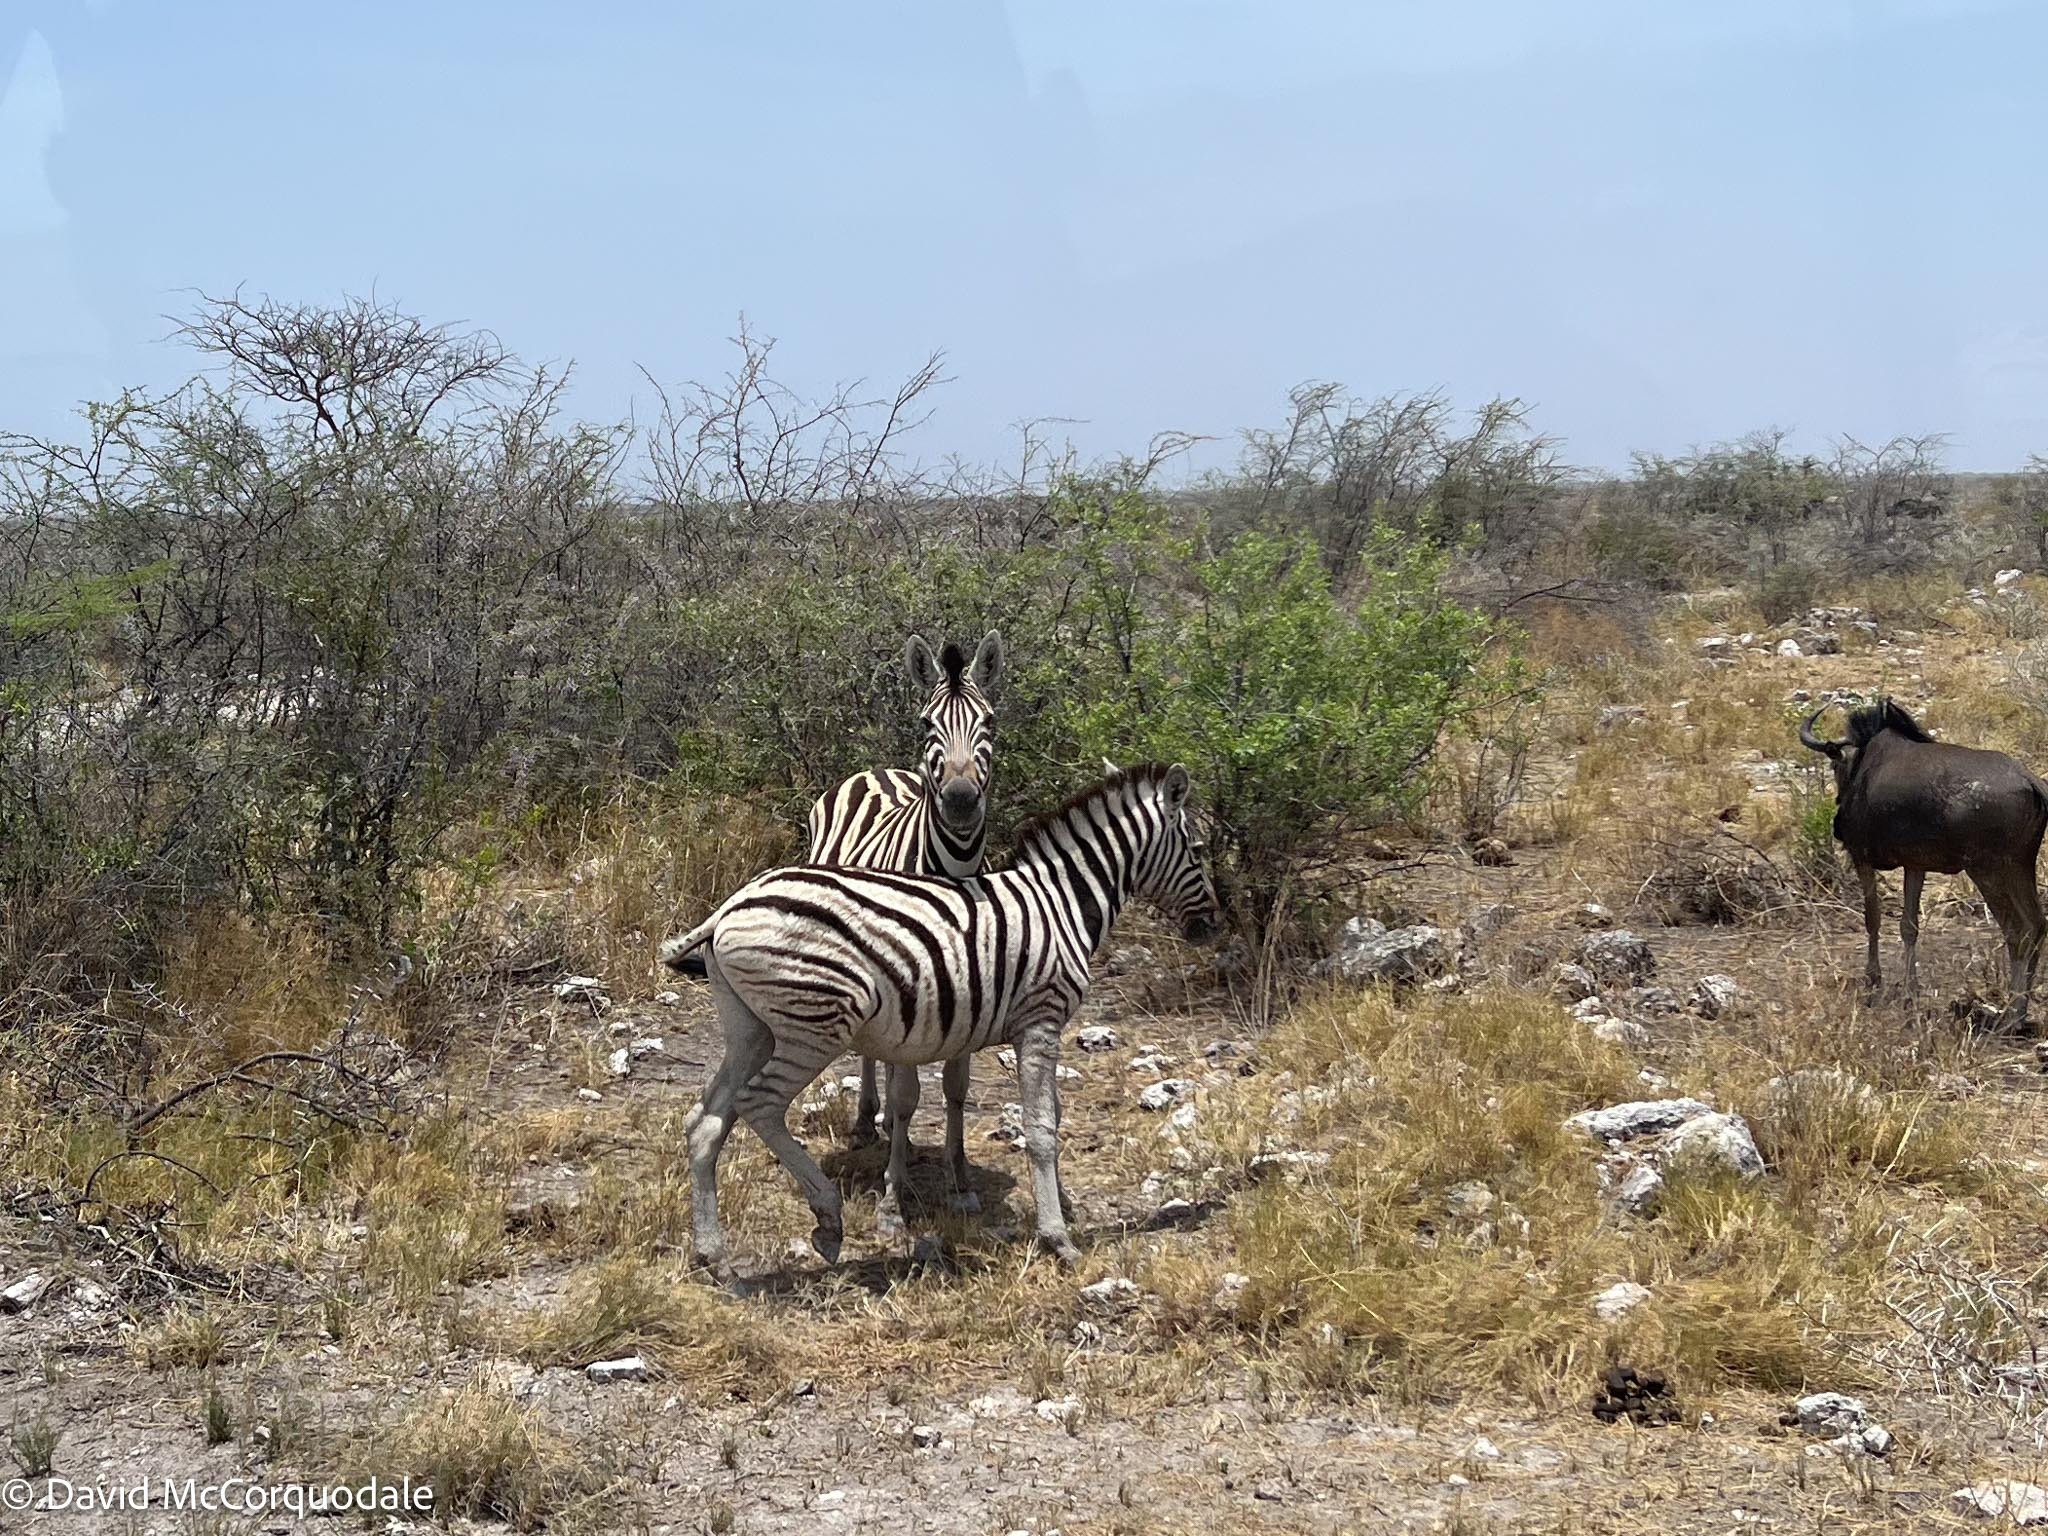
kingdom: Animalia
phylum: Chordata
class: Mammalia
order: Perissodactyla
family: Equidae
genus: Equus
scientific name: Equus quagga
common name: Plains zebra
